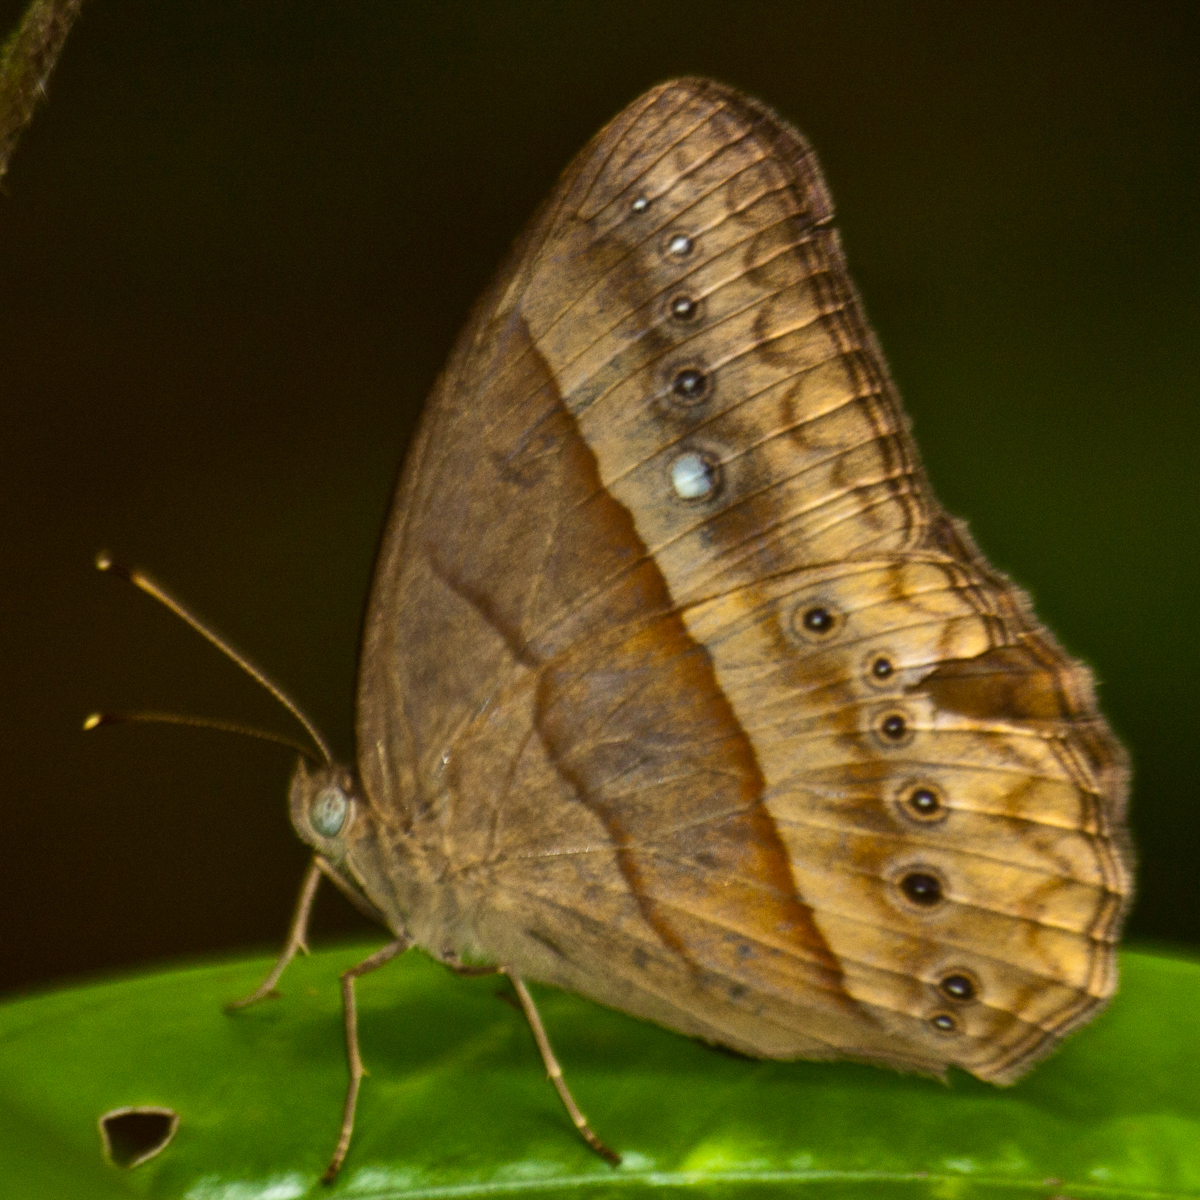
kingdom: Animalia
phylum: Arthropoda
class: Insecta
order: Lepidoptera
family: Nymphalidae
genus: Mycalesis
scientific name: Mycalesis mnasicles
